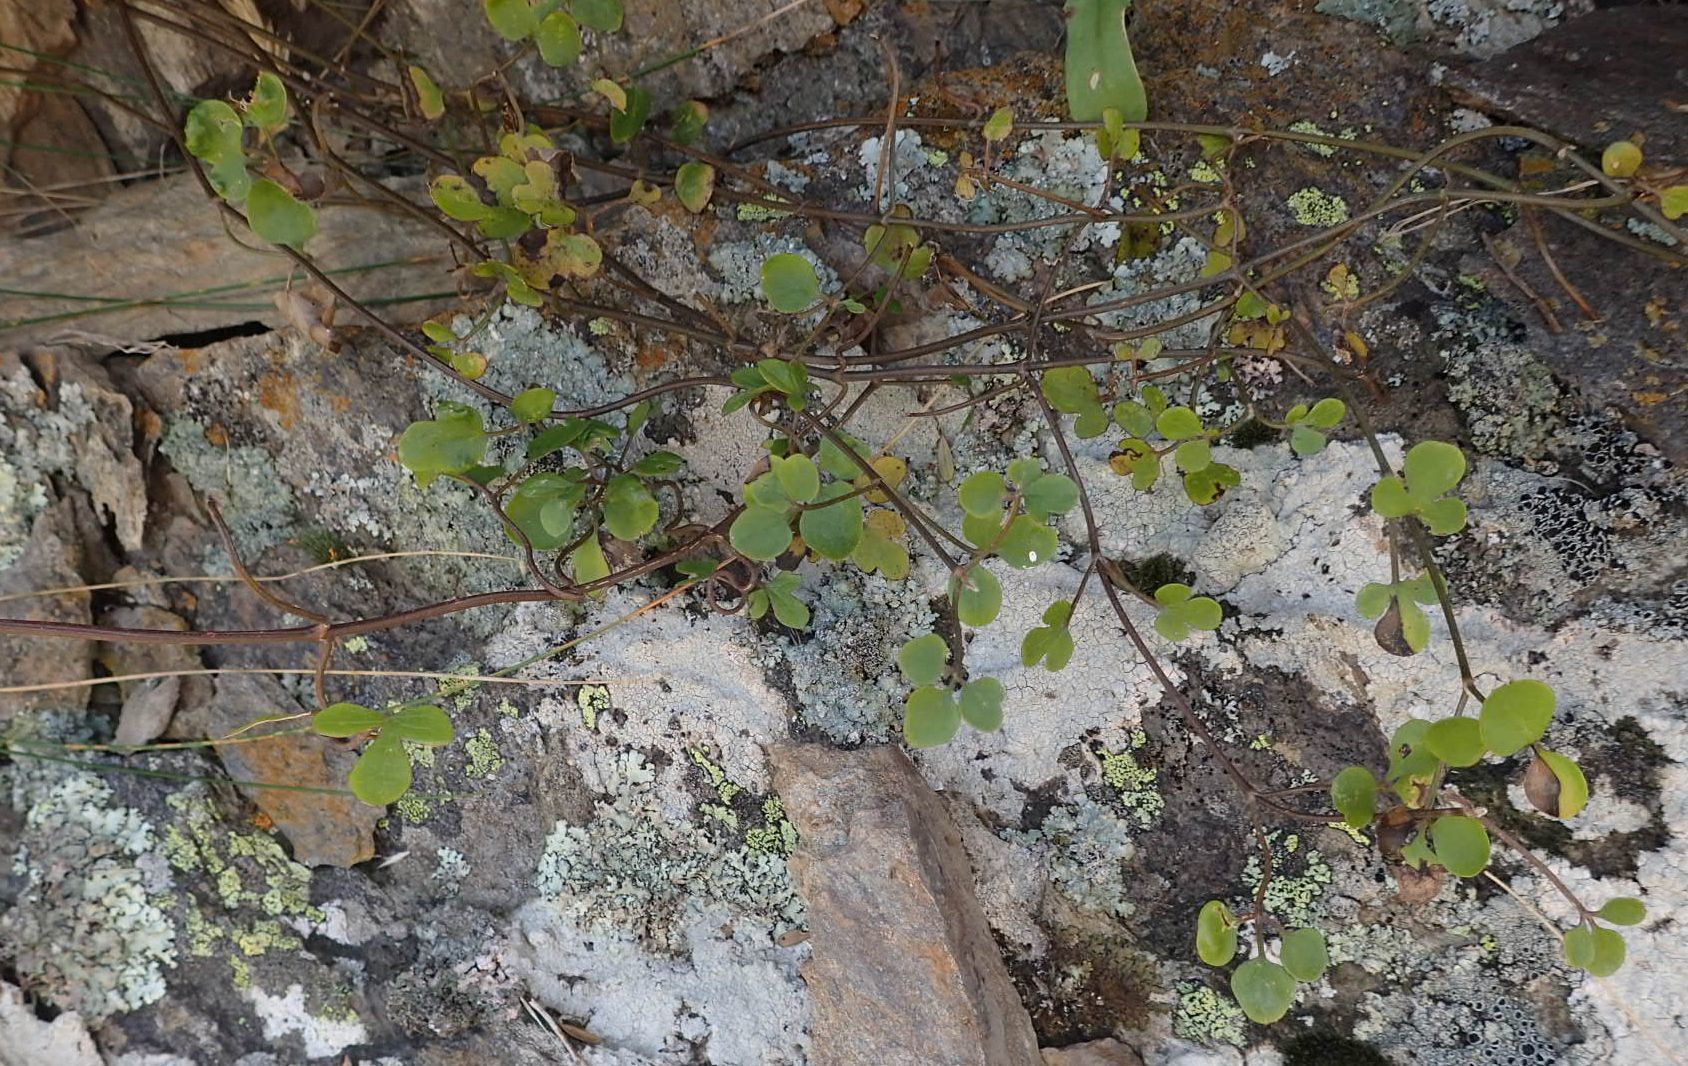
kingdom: Plantae
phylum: Tracheophyta
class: Magnoliopsida
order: Ranunculales
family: Ranunculaceae
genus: Clematis
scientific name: Clematis marata
